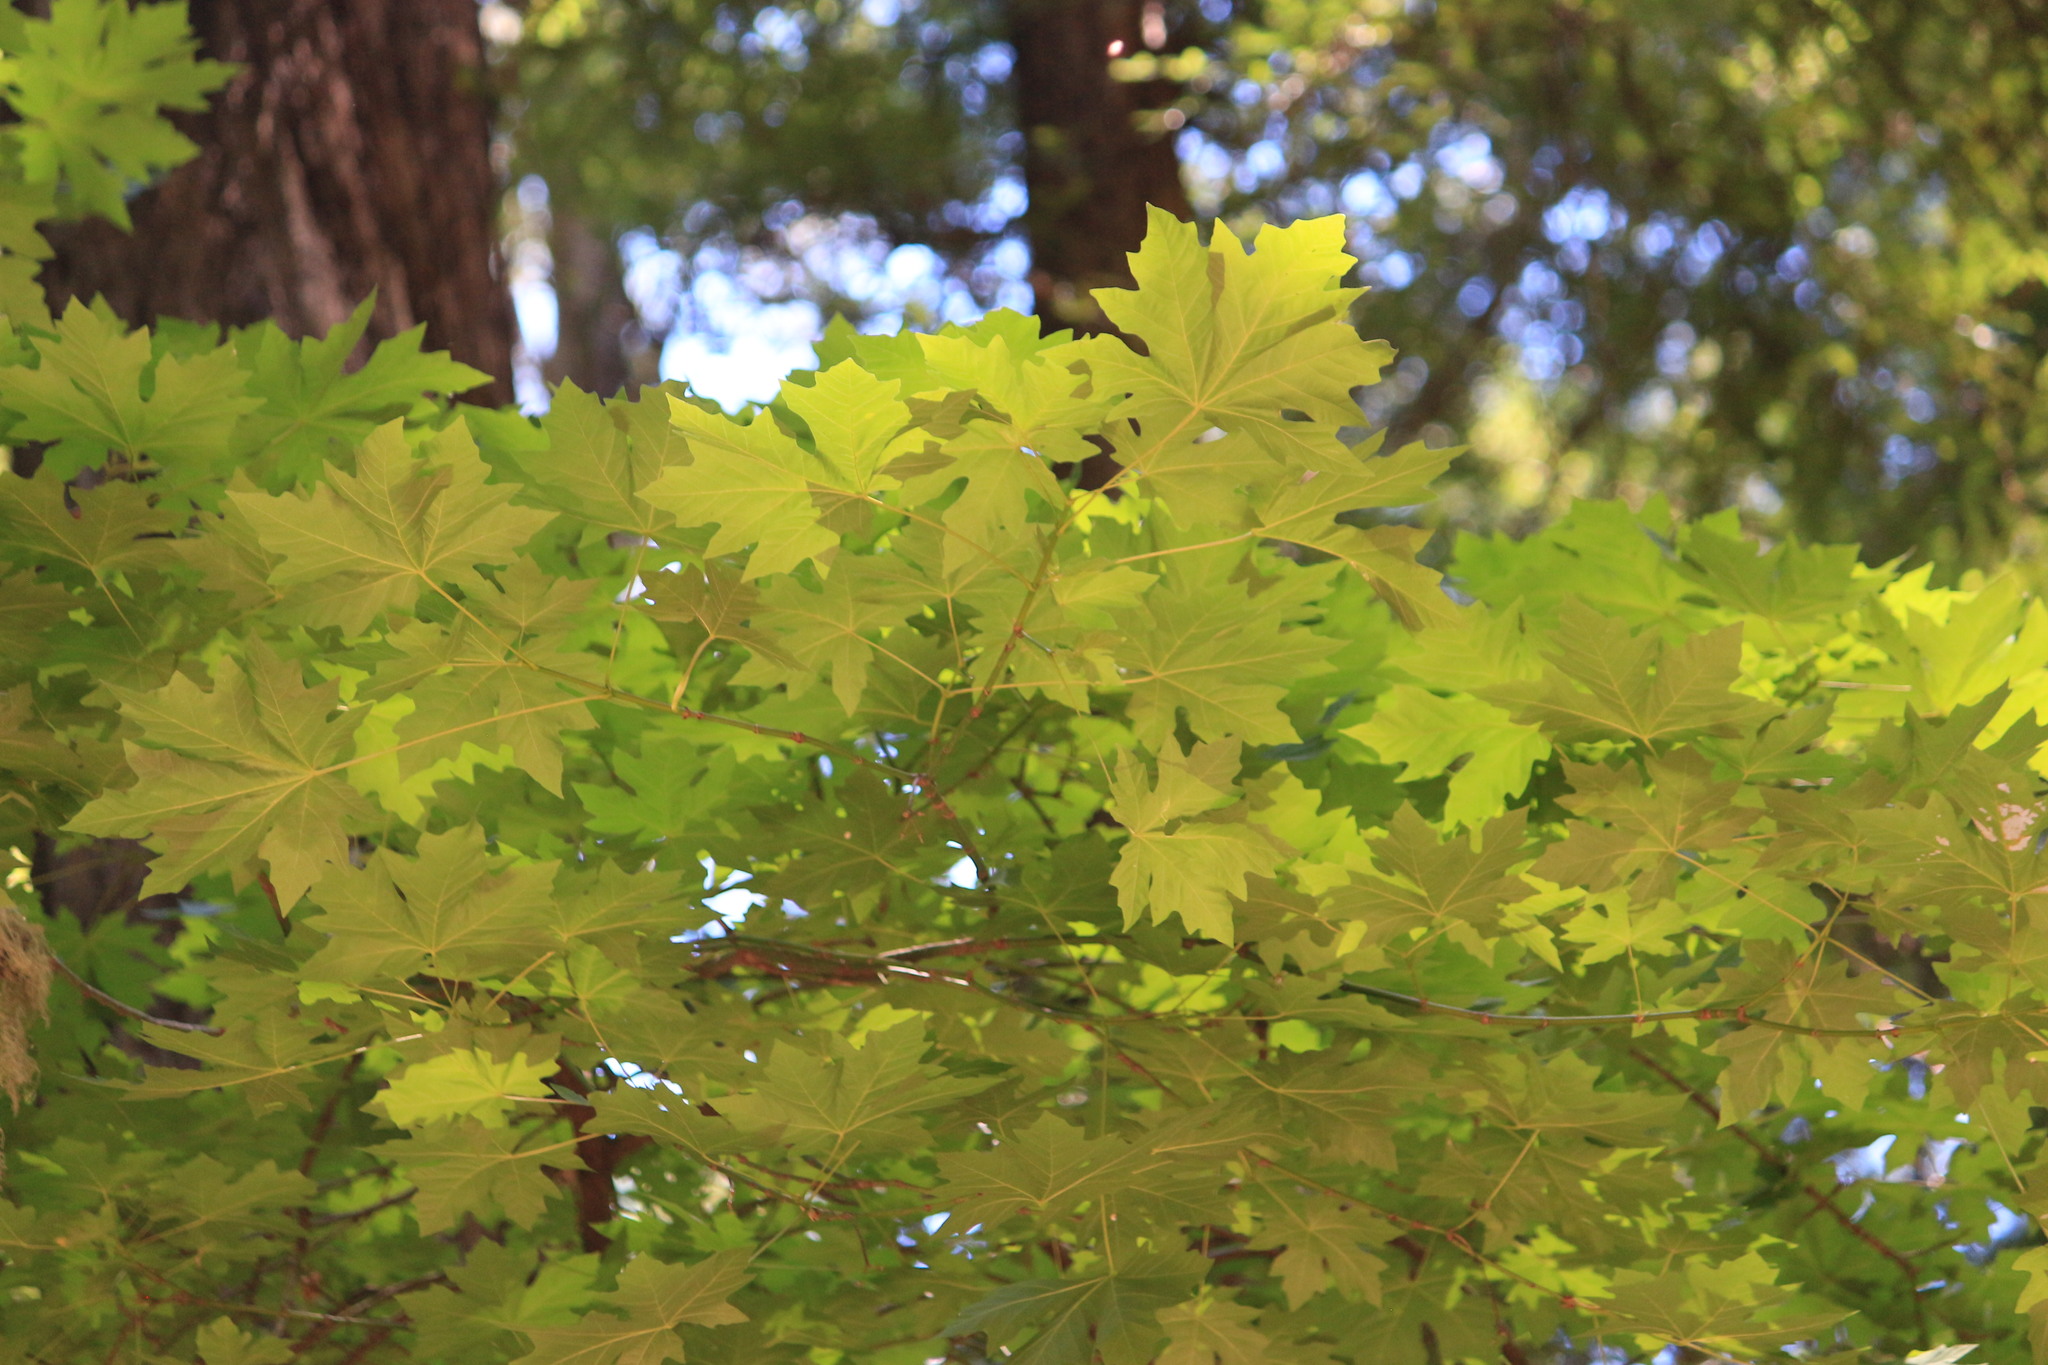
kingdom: Plantae
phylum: Tracheophyta
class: Magnoliopsida
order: Sapindales
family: Sapindaceae
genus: Acer
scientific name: Acer macrophyllum
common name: Oregon maple
